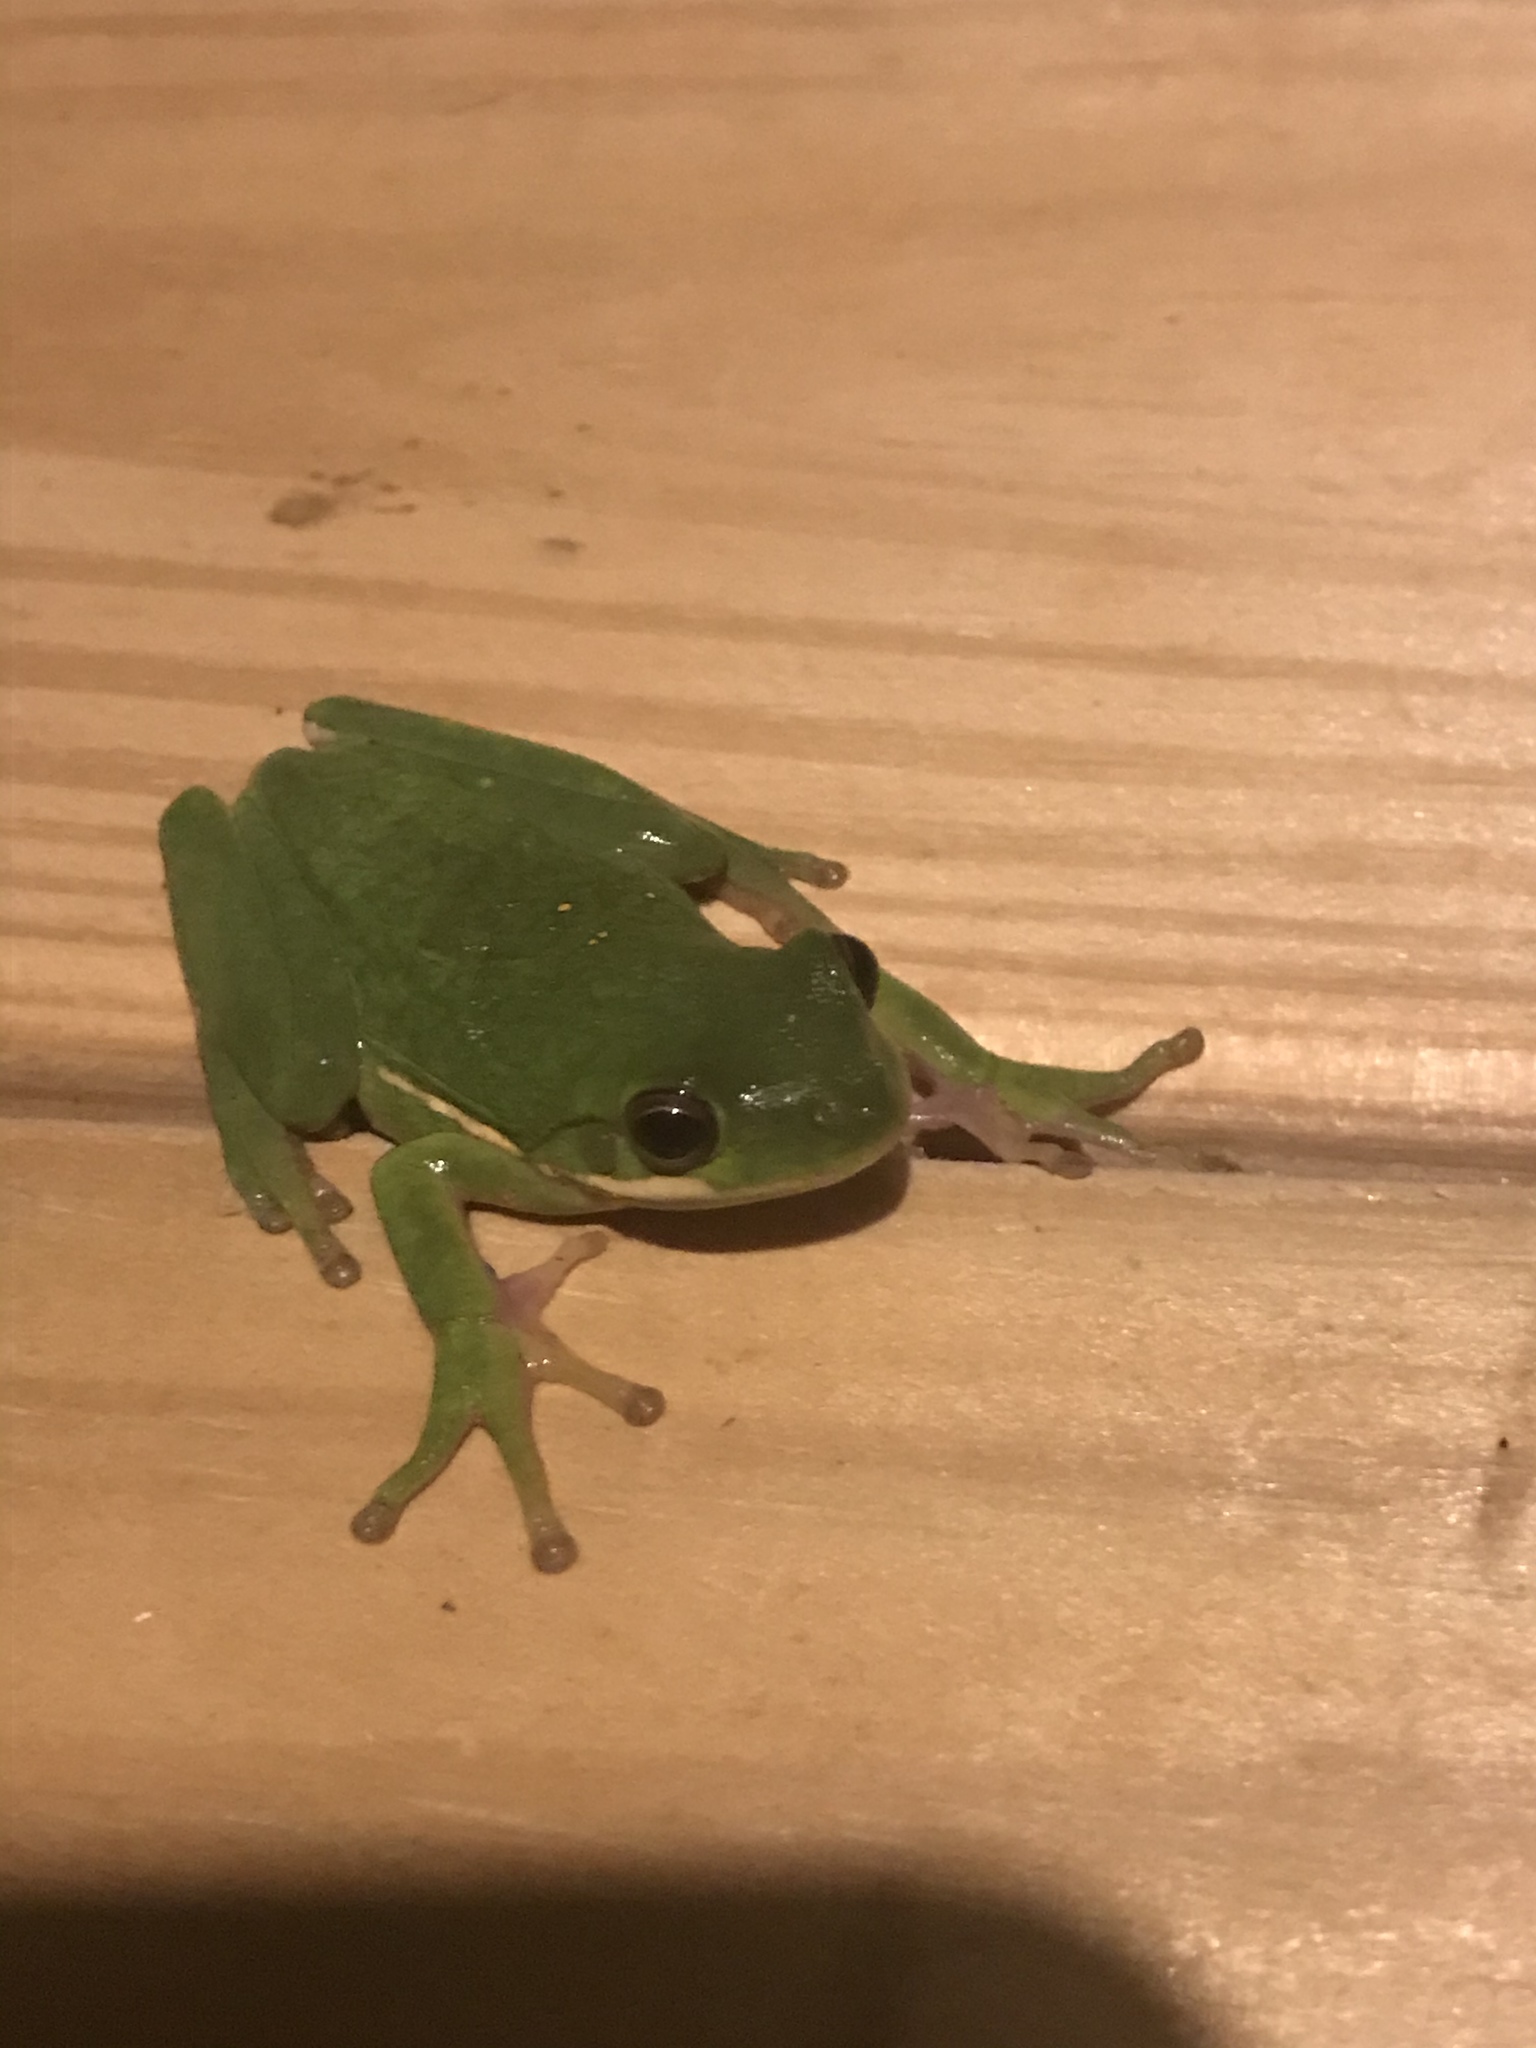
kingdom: Animalia
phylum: Chordata
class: Amphibia
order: Anura
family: Hylidae
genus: Dryophytes
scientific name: Dryophytes cinereus
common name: Green treefrog
